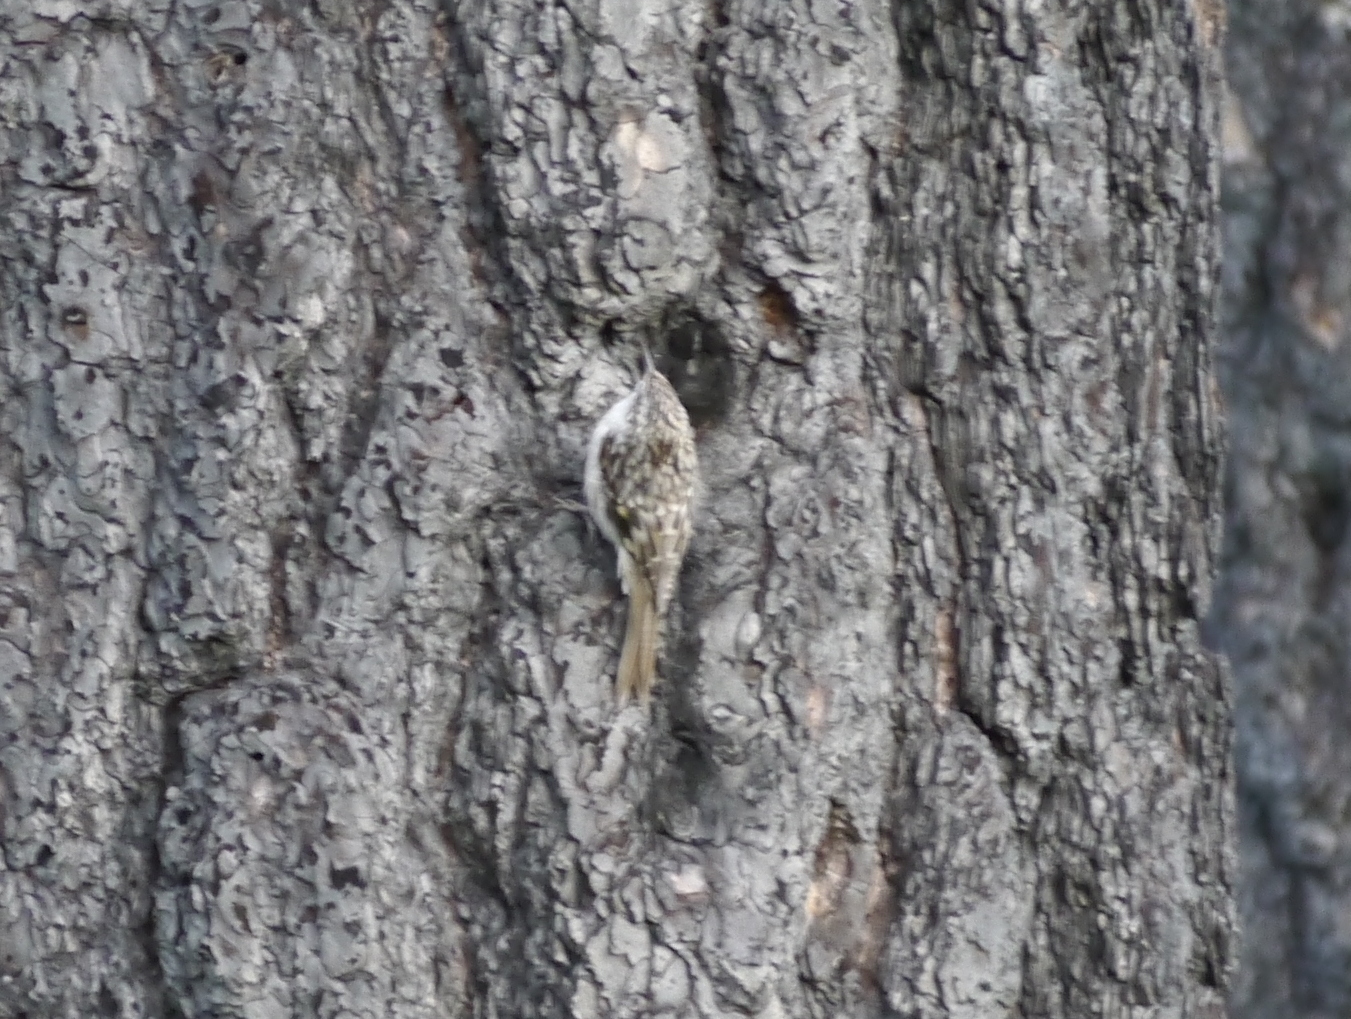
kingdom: Animalia
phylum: Chordata
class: Aves
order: Passeriformes
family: Certhiidae
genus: Certhia
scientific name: Certhia americana
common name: Brown creeper
